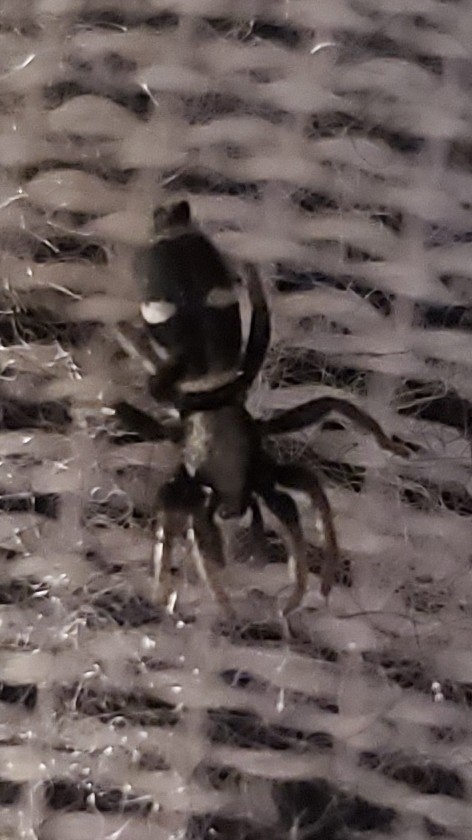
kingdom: Animalia
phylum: Arthropoda
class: Arachnida
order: Araneae
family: Gnaphosidae
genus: Sergiolus
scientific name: Sergiolus columbianus
